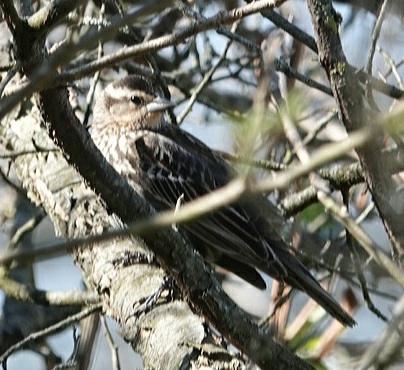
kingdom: Animalia
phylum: Chordata
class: Aves
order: Passeriformes
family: Icteridae
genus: Agelaius
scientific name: Agelaius phoeniceus
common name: Red-winged blackbird
